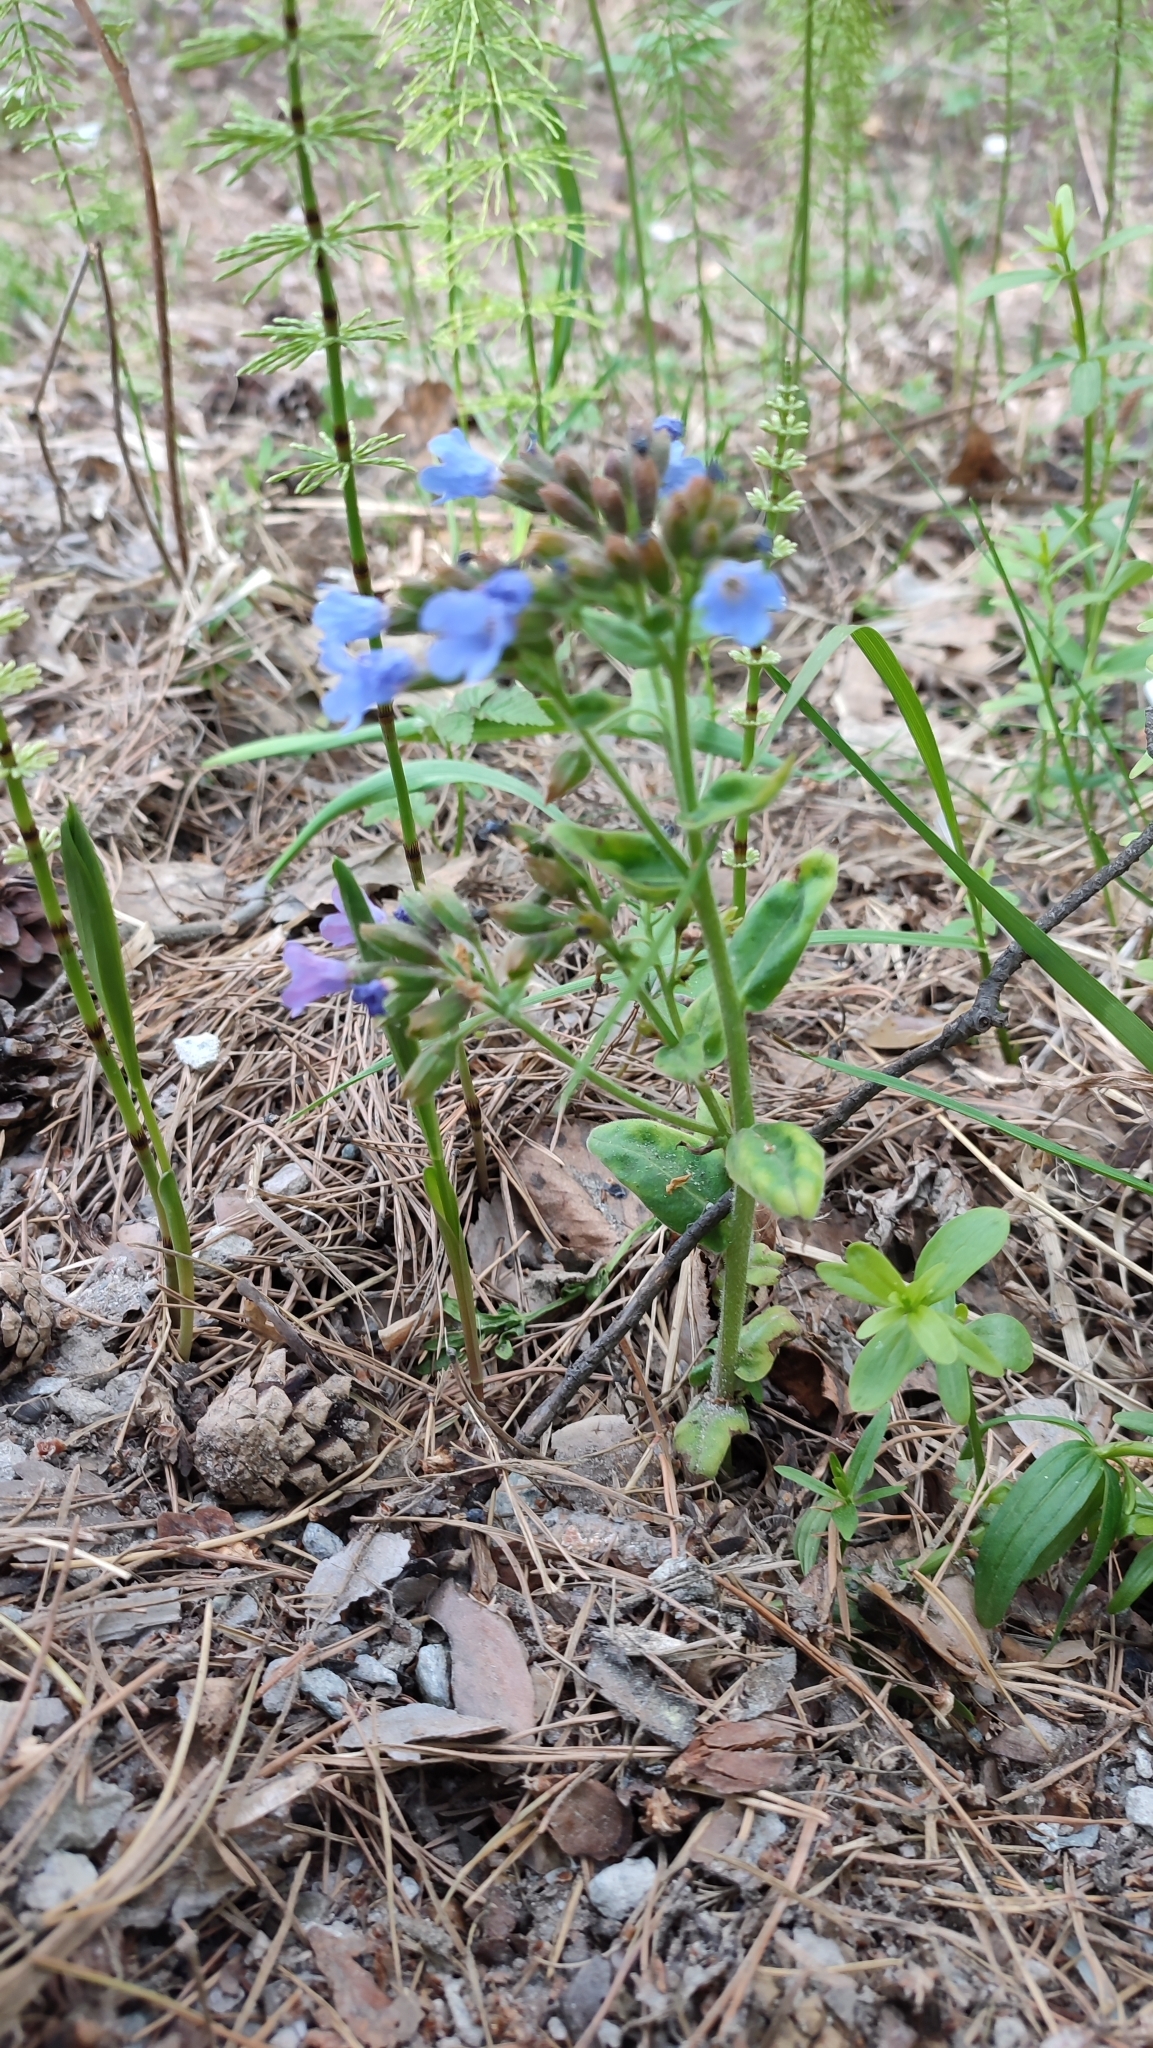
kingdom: Plantae
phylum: Tracheophyta
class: Magnoliopsida
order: Boraginales
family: Boraginaceae
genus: Pulmonaria
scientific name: Pulmonaria mollis
